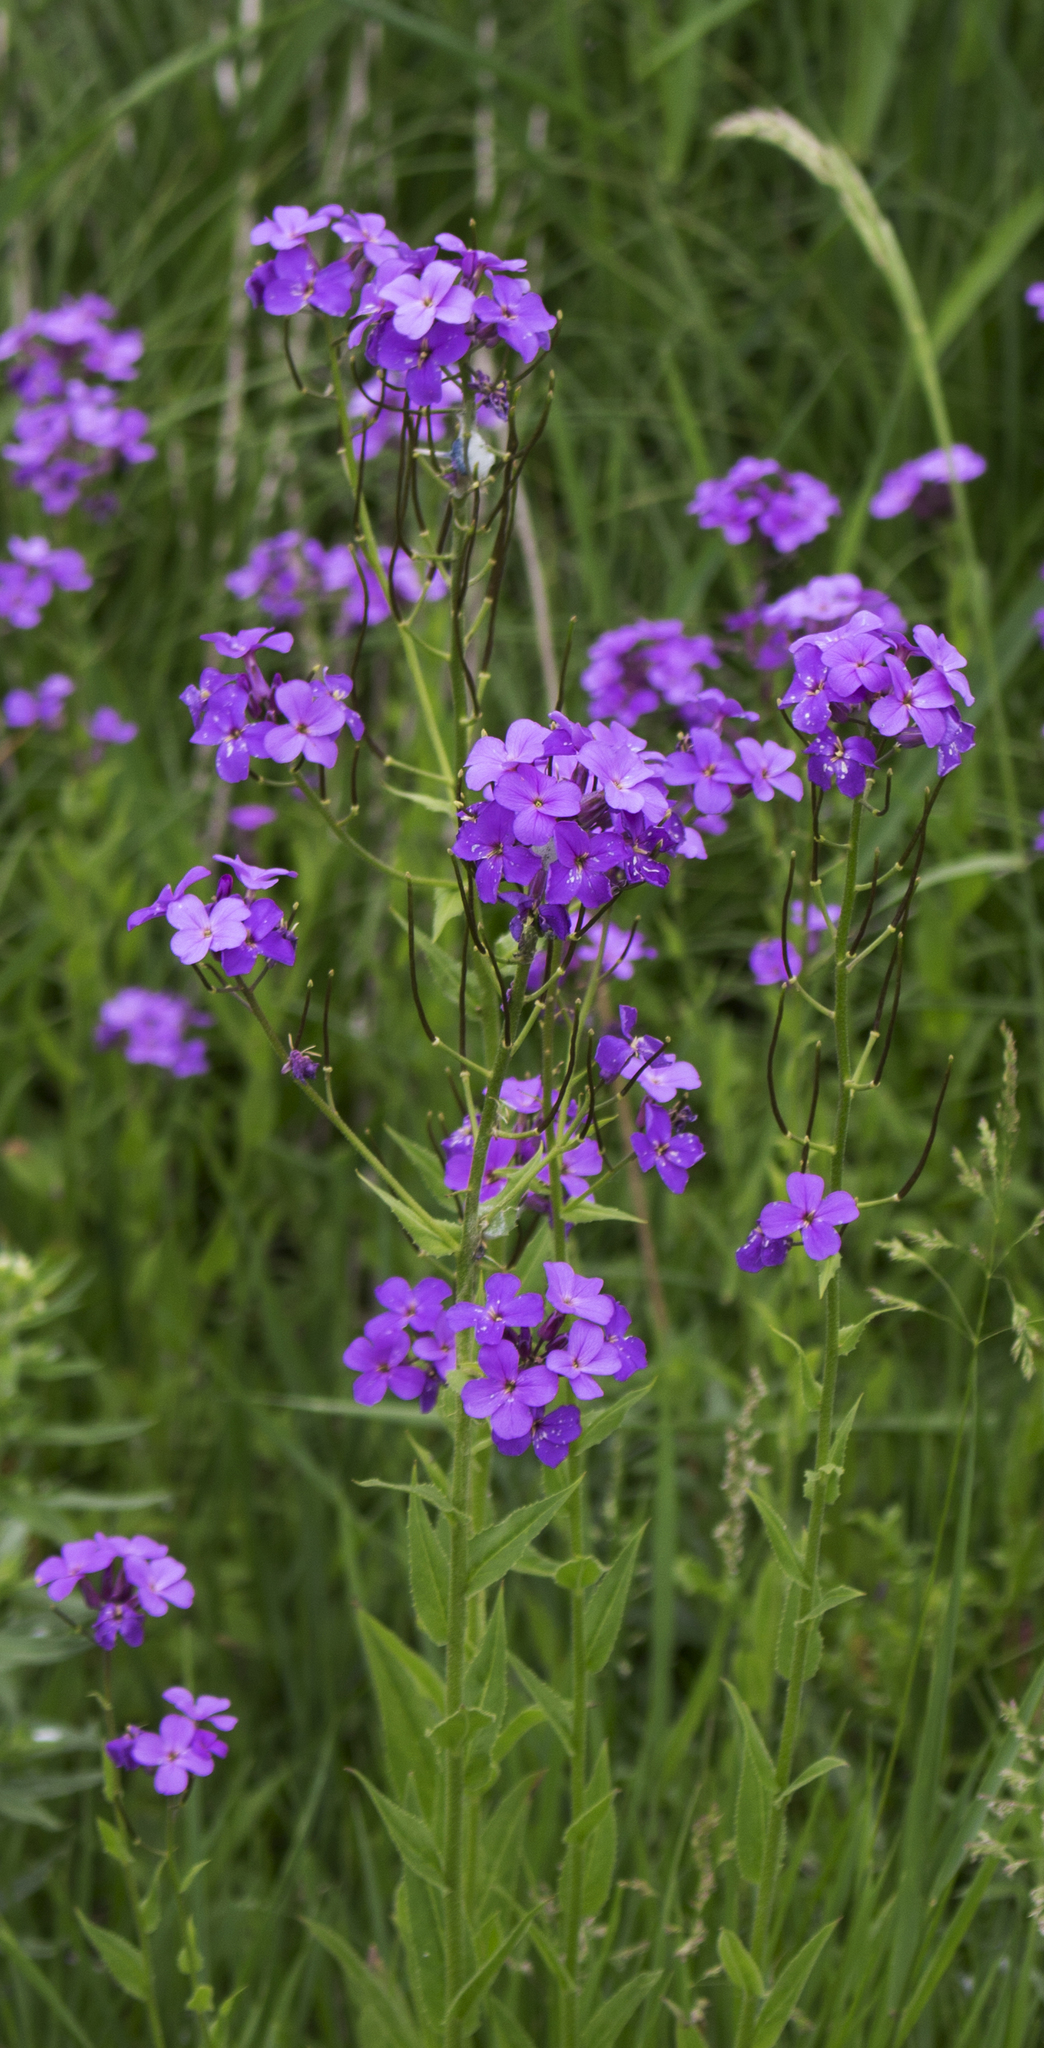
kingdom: Plantae
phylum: Tracheophyta
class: Magnoliopsida
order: Brassicales
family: Brassicaceae
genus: Hesperis
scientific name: Hesperis matronalis
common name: Dame's-violet
